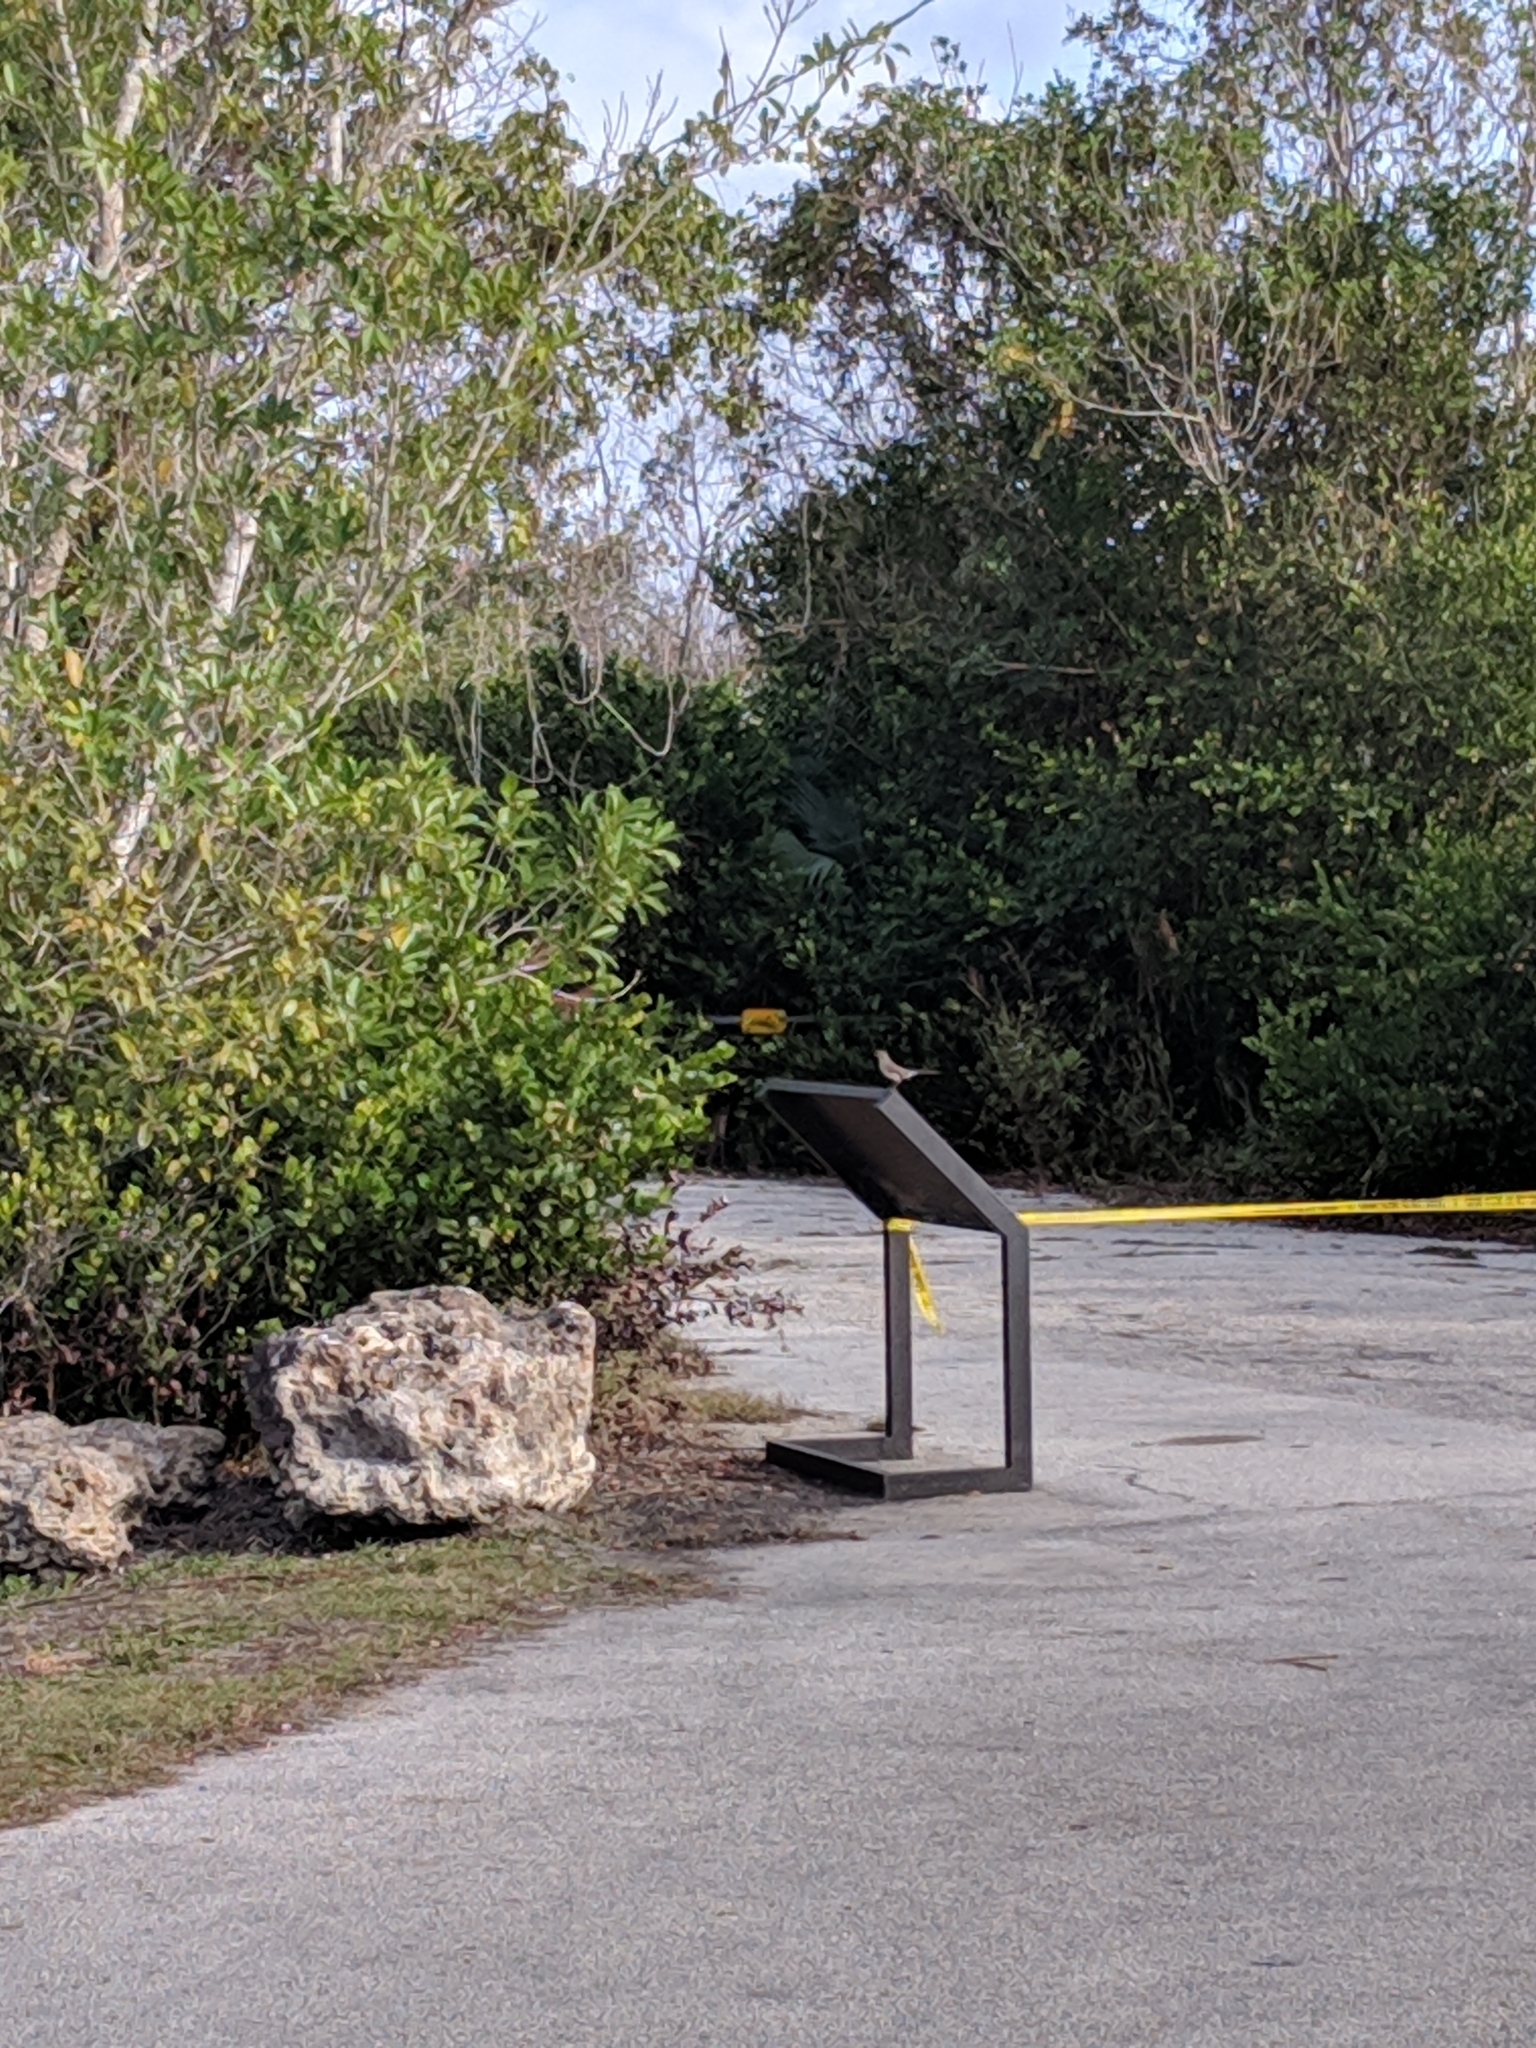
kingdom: Animalia
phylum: Chordata
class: Aves
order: Passeriformes
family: Mimidae
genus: Mimus
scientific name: Mimus polyglottos
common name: Northern mockingbird
